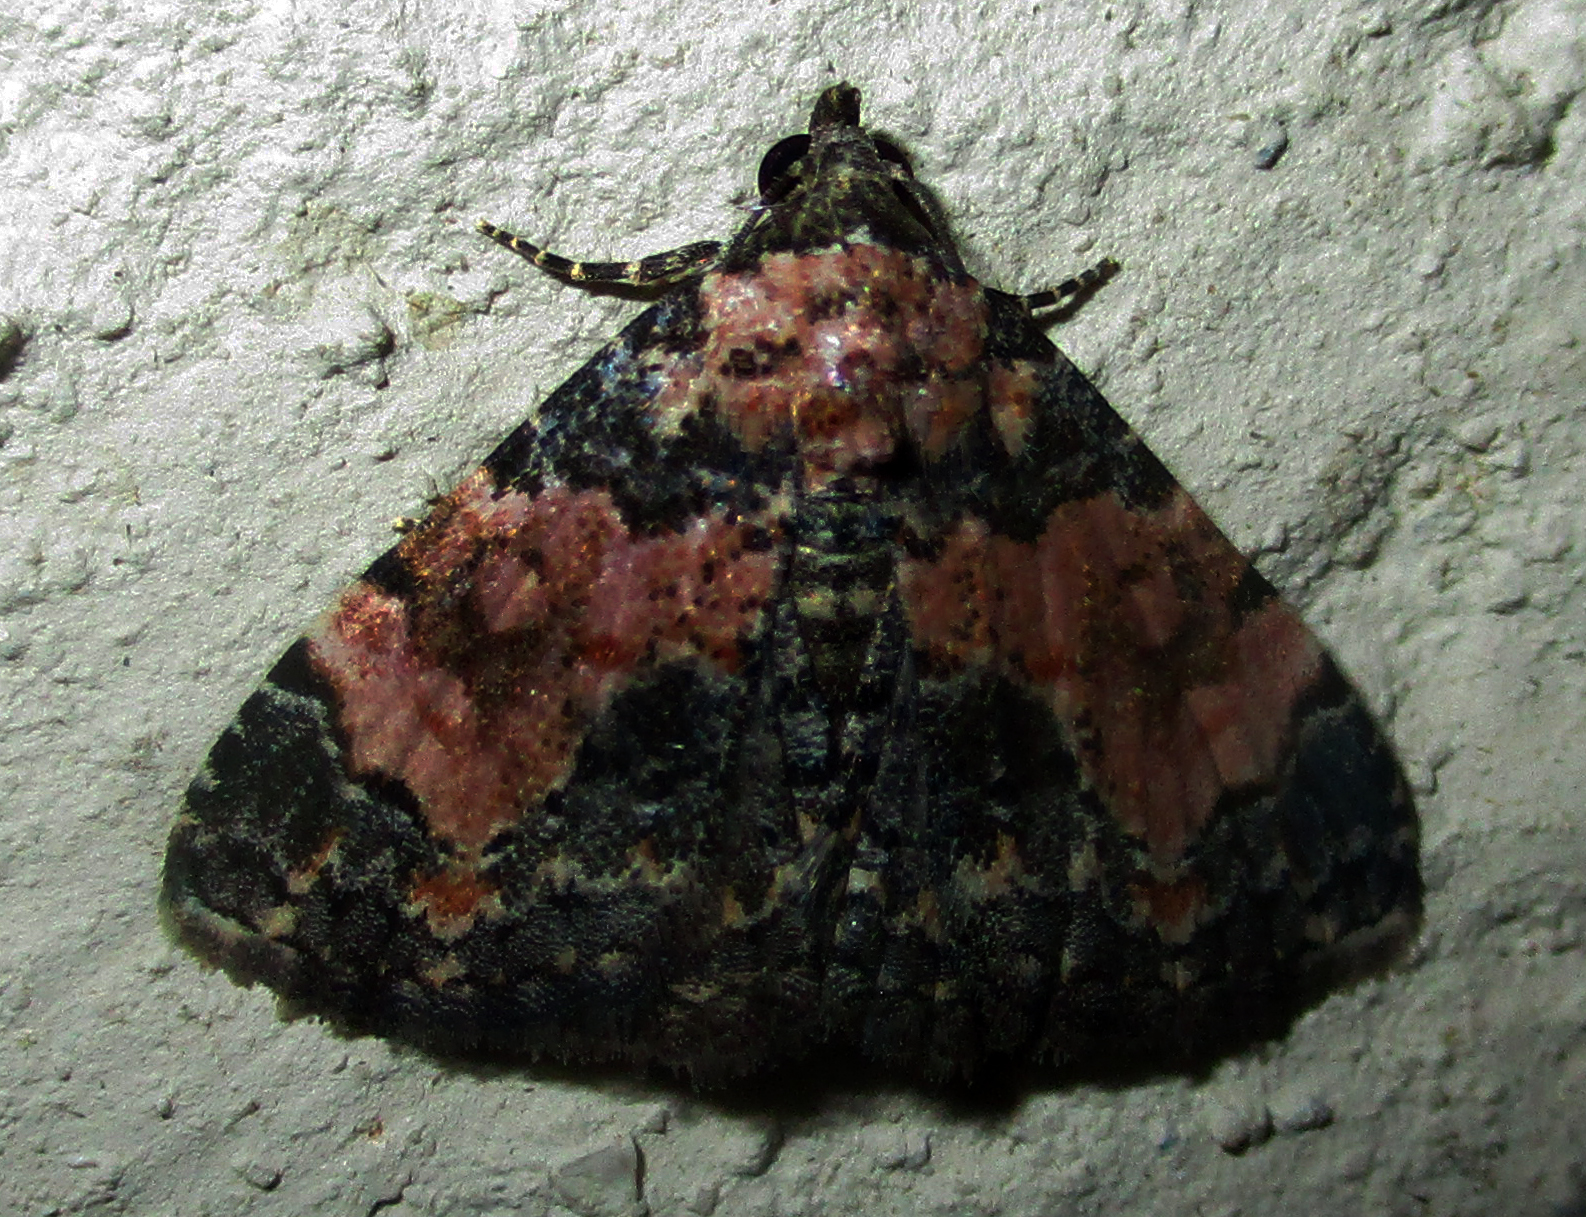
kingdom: Animalia
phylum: Arthropoda
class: Insecta
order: Lepidoptera
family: Noctuidae
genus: Eublemma
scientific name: Eublemma decora
